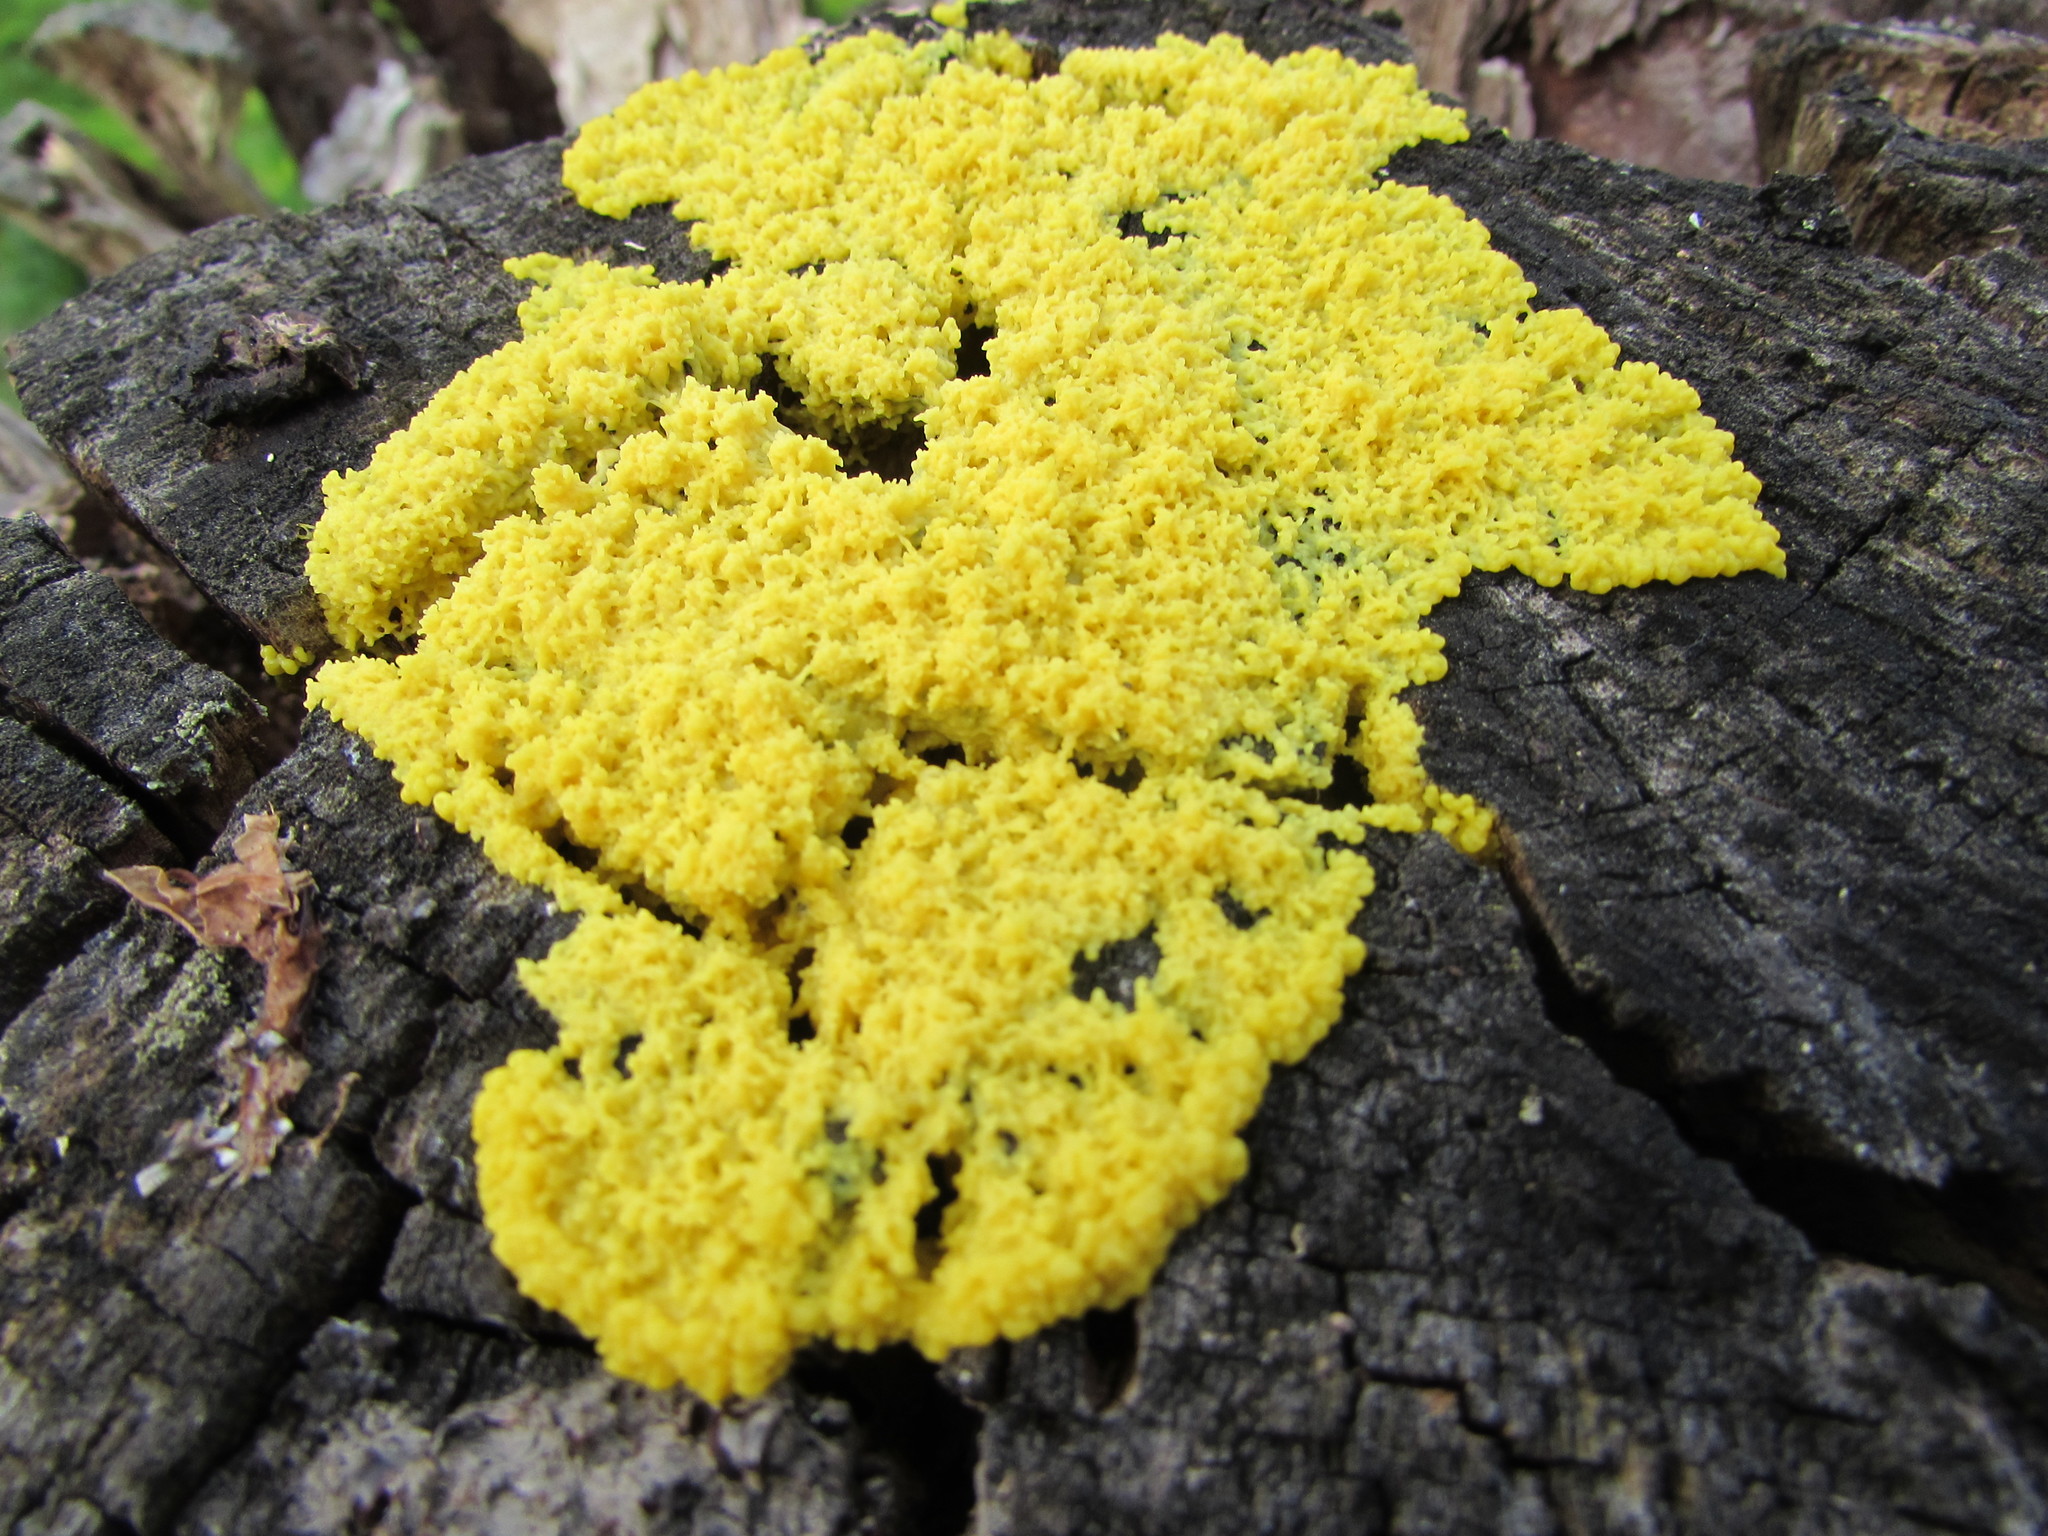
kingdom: Protozoa
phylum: Mycetozoa
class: Myxomycetes
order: Physarales
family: Physaraceae
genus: Fuligo
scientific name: Fuligo septica
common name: Dog vomit slime mold
